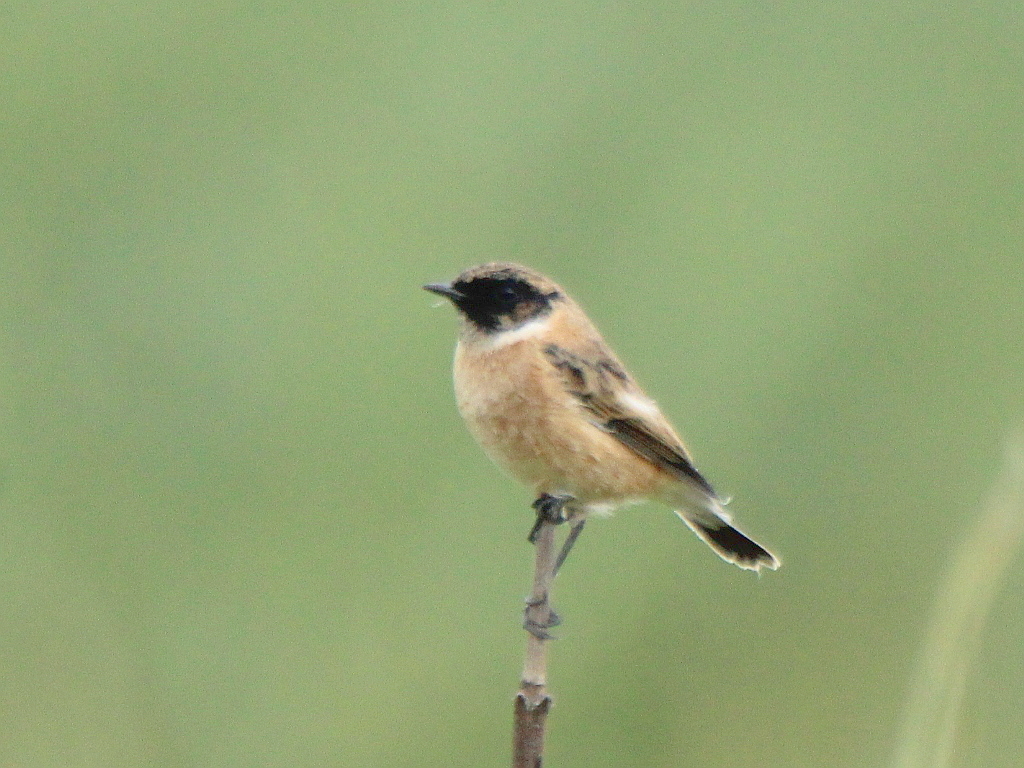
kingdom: Animalia
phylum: Chordata
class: Aves
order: Passeriformes
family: Muscicapidae
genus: Saxicola
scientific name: Saxicola maurus
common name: Siberian stonechat
